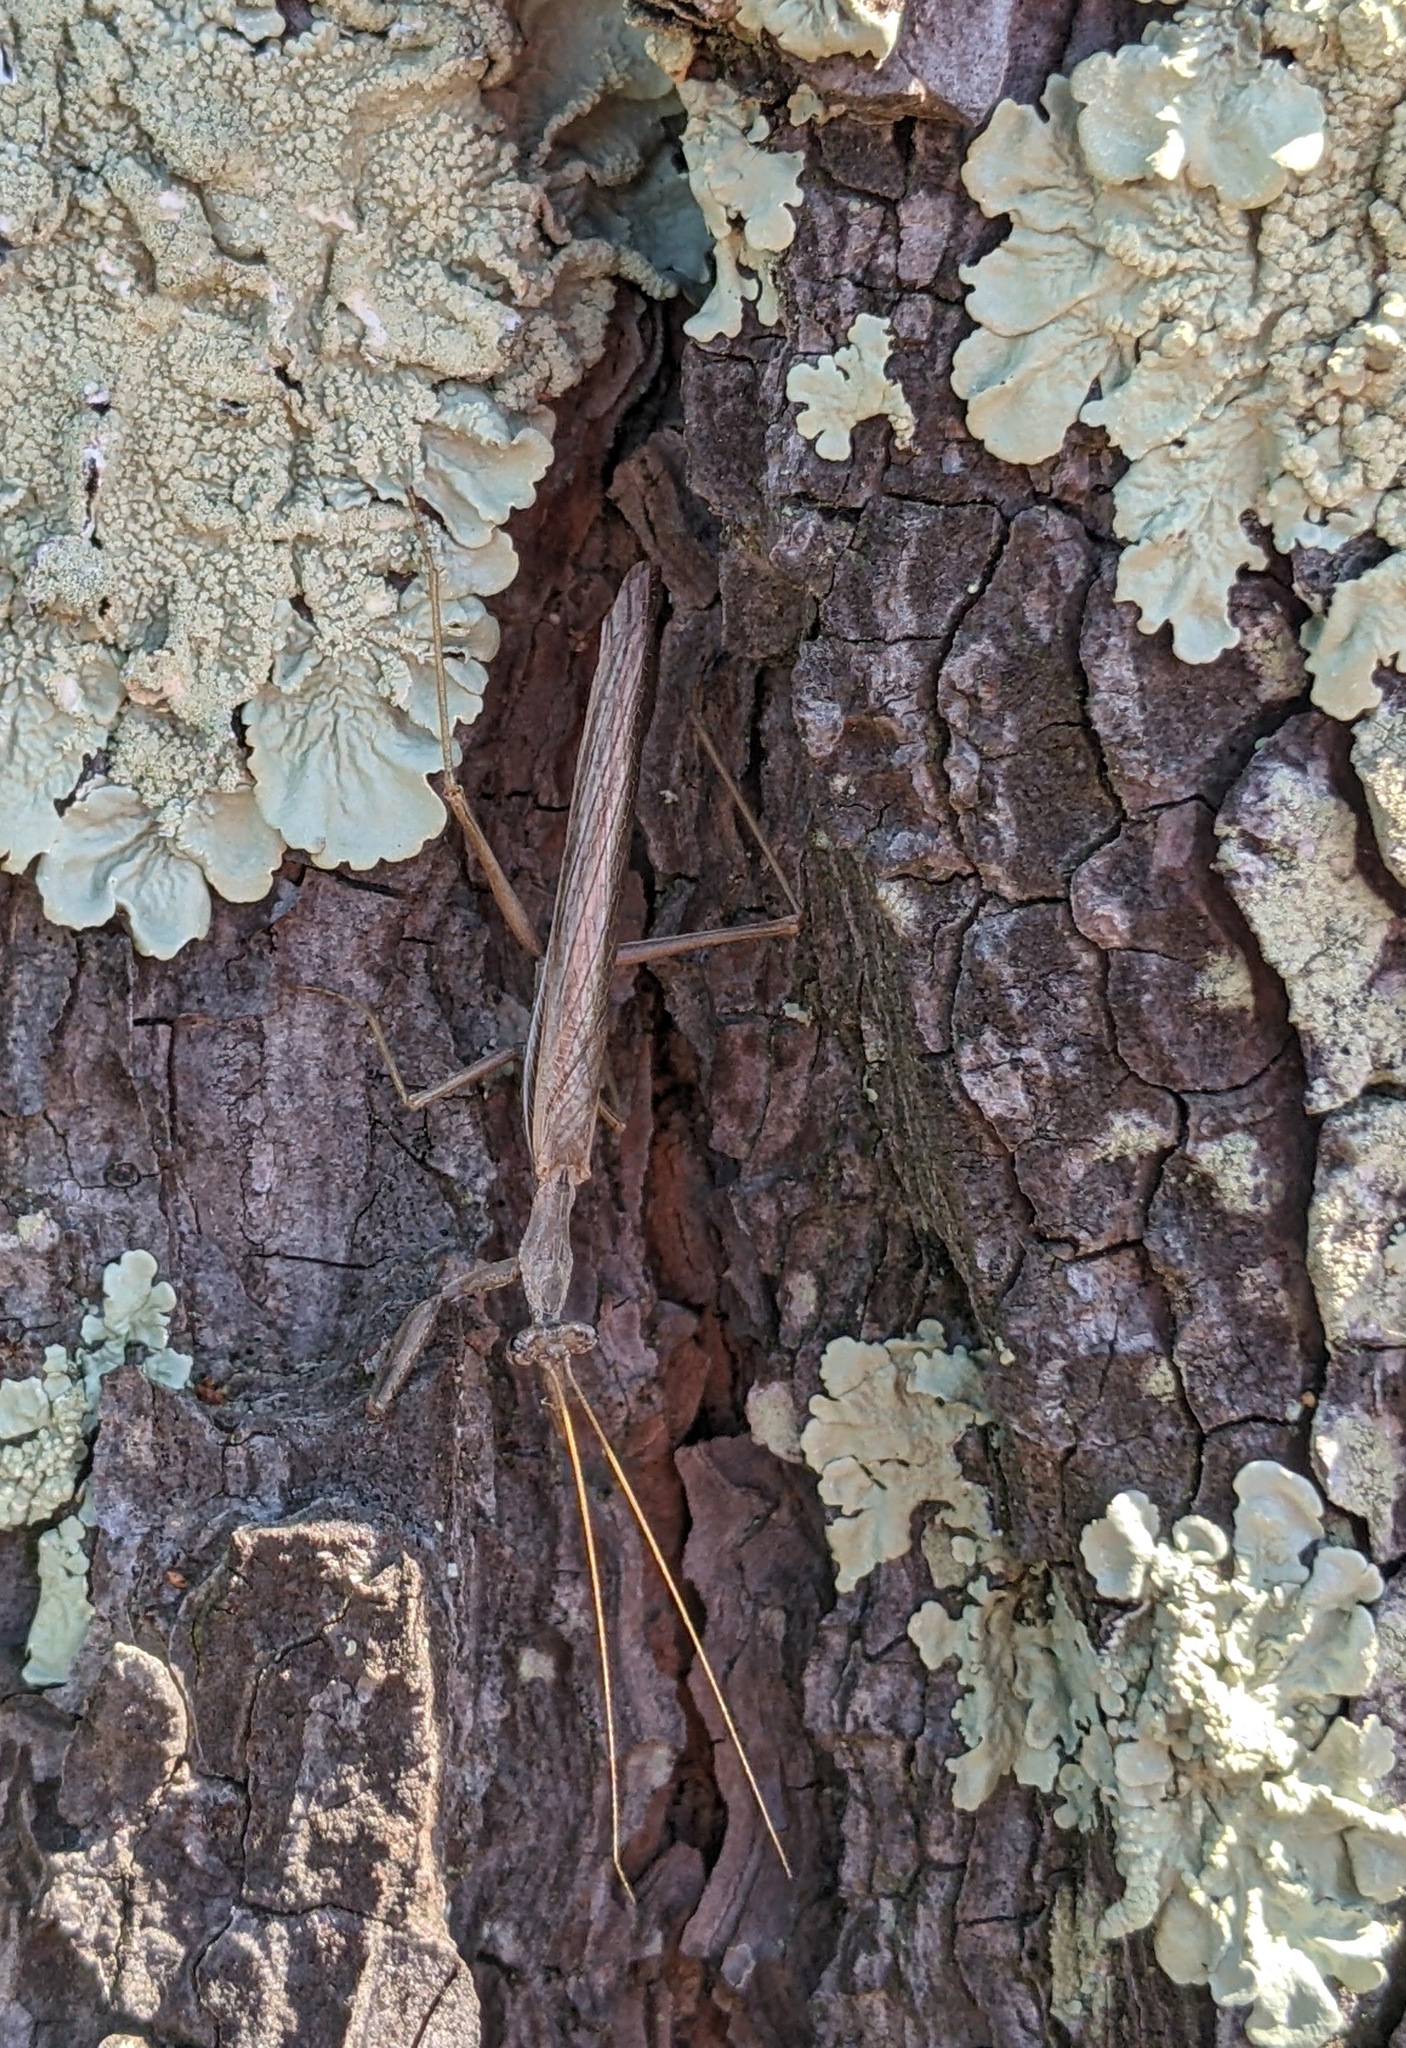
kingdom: Animalia
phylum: Arthropoda
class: Insecta
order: Mantodea
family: Amelidae
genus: Ameles
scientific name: Ameles decolor
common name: Dwarf mantis
